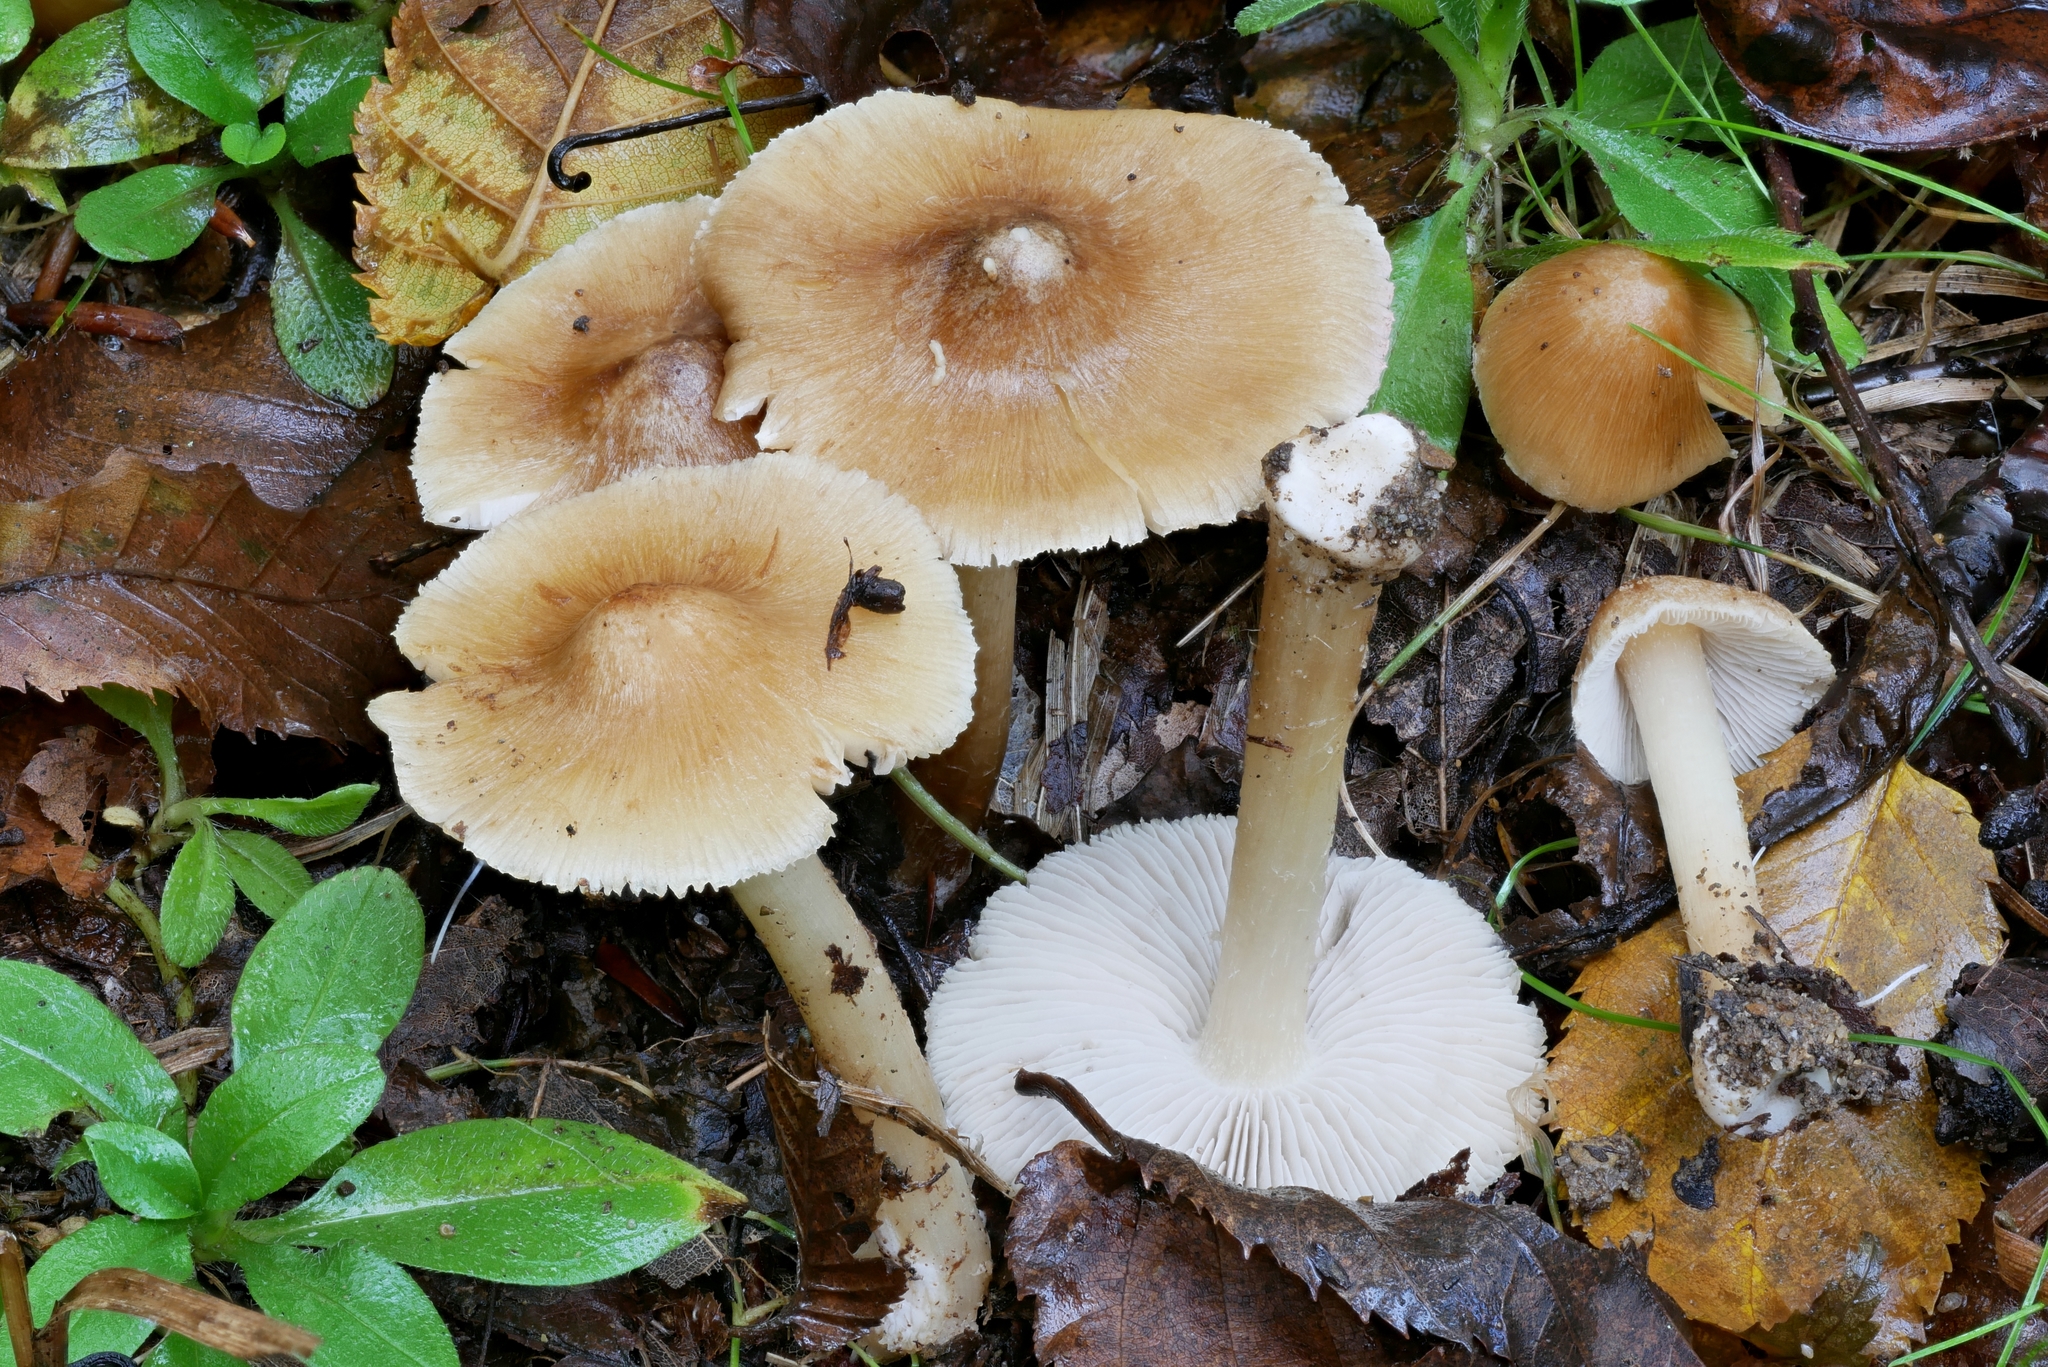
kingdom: Fungi
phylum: Basidiomycota
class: Agaricomycetes
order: Agaricales
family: Inocybaceae
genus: Inosperma
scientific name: Inosperma rimosoides
